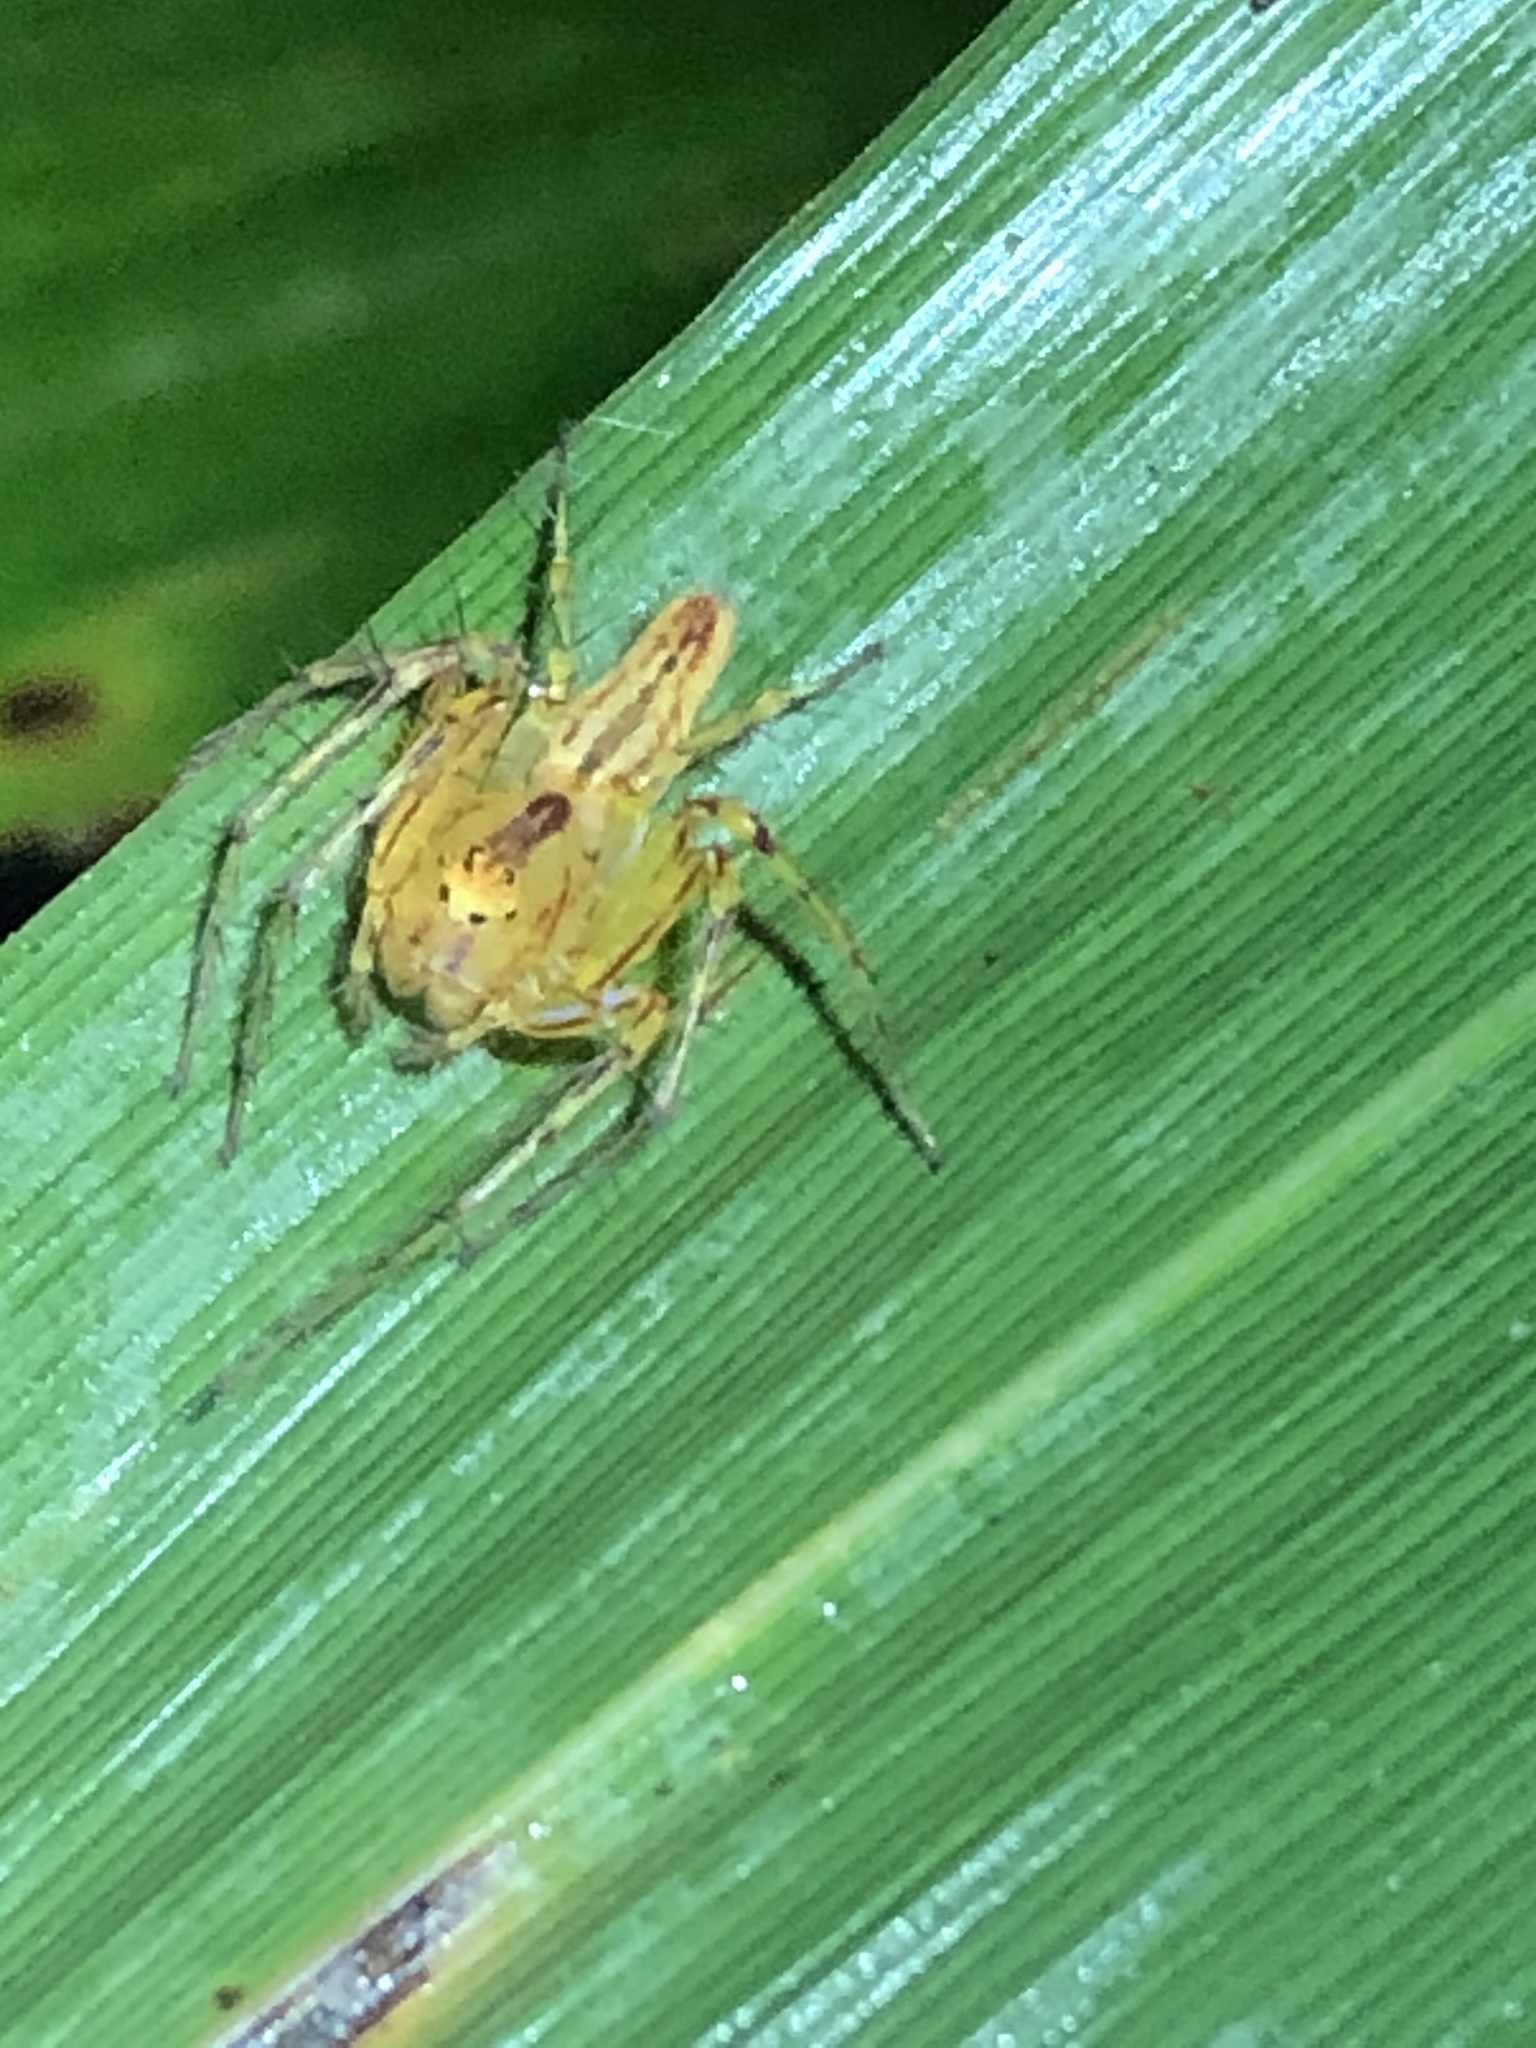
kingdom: Animalia
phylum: Arthropoda
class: Arachnida
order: Araneae
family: Oxyopidae
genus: Oxyopes
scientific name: Oxyopes incertus
